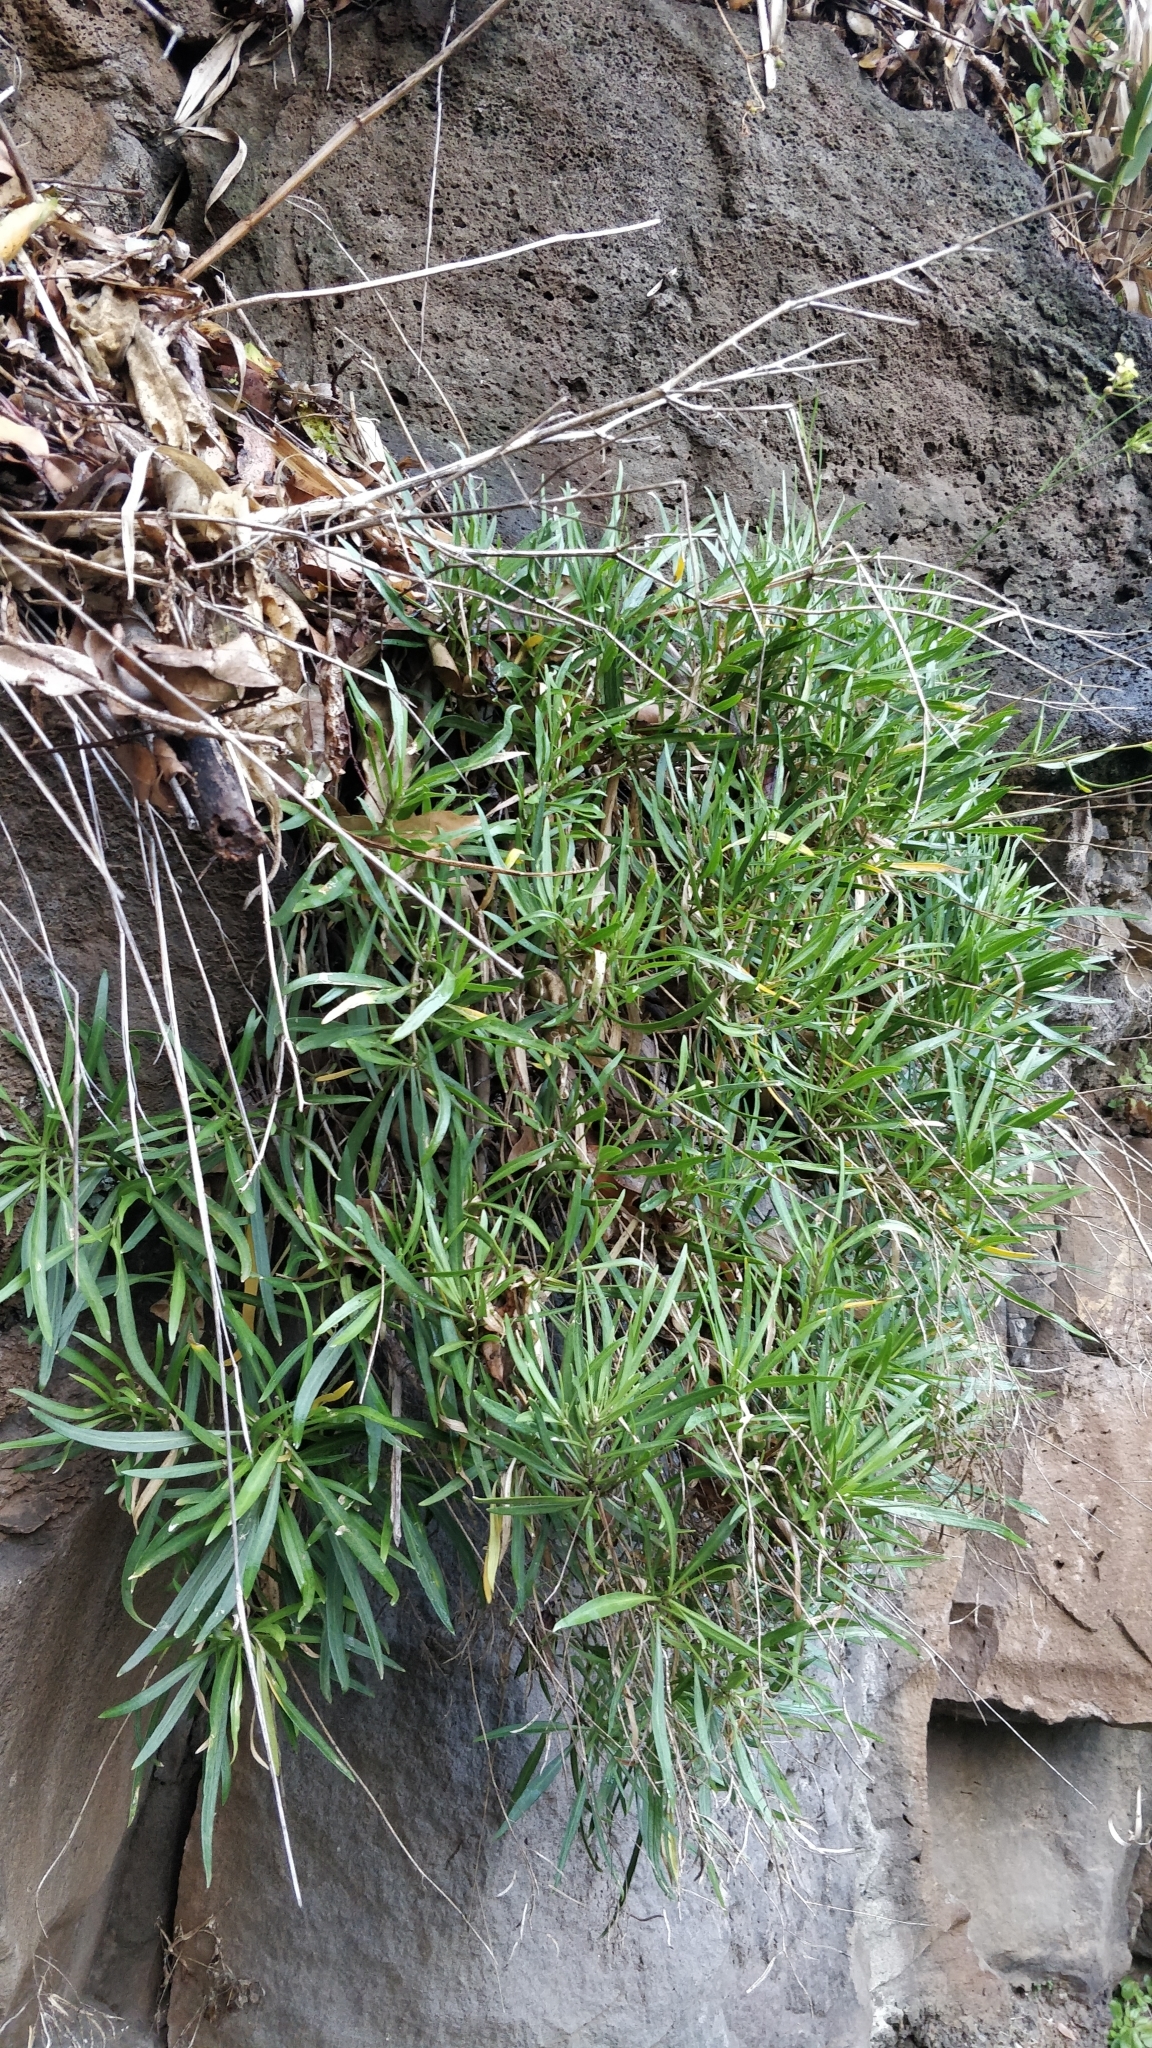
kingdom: Plantae
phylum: Tracheophyta
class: Magnoliopsida
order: Brassicales
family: Brassicaceae
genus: Sinapidendron
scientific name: Sinapidendron angustifolium
